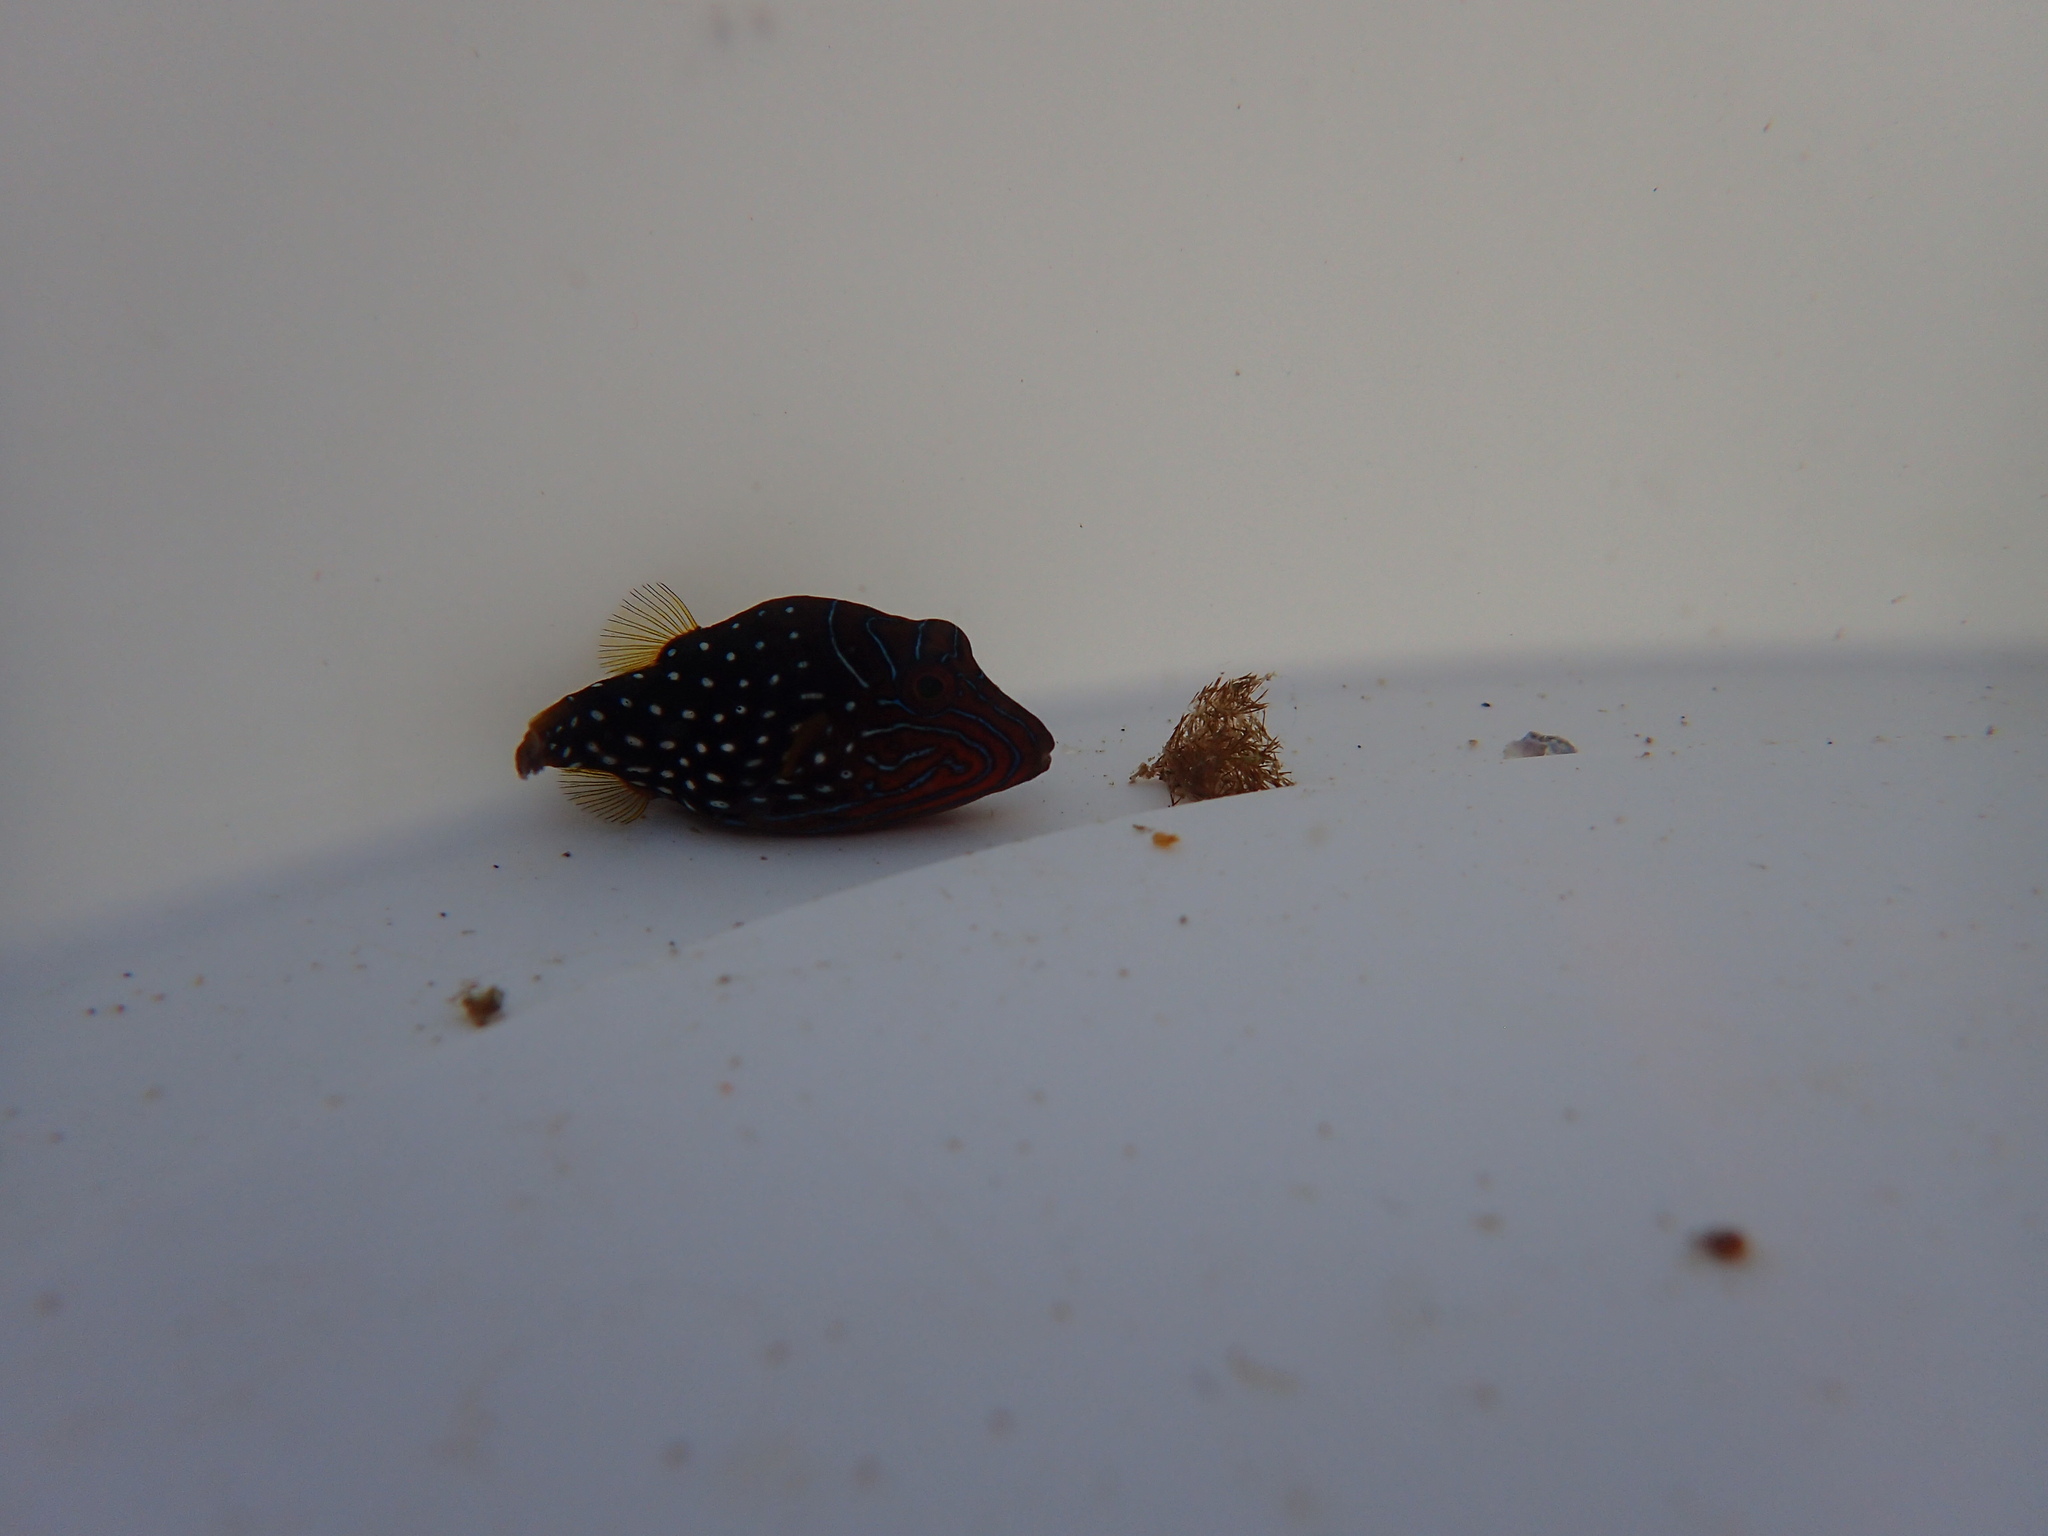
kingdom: Animalia
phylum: Chordata
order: Tetraodontiformes
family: Tetraodontidae
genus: Canthigaster
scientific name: Canthigaster natalensis
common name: Natal toby
